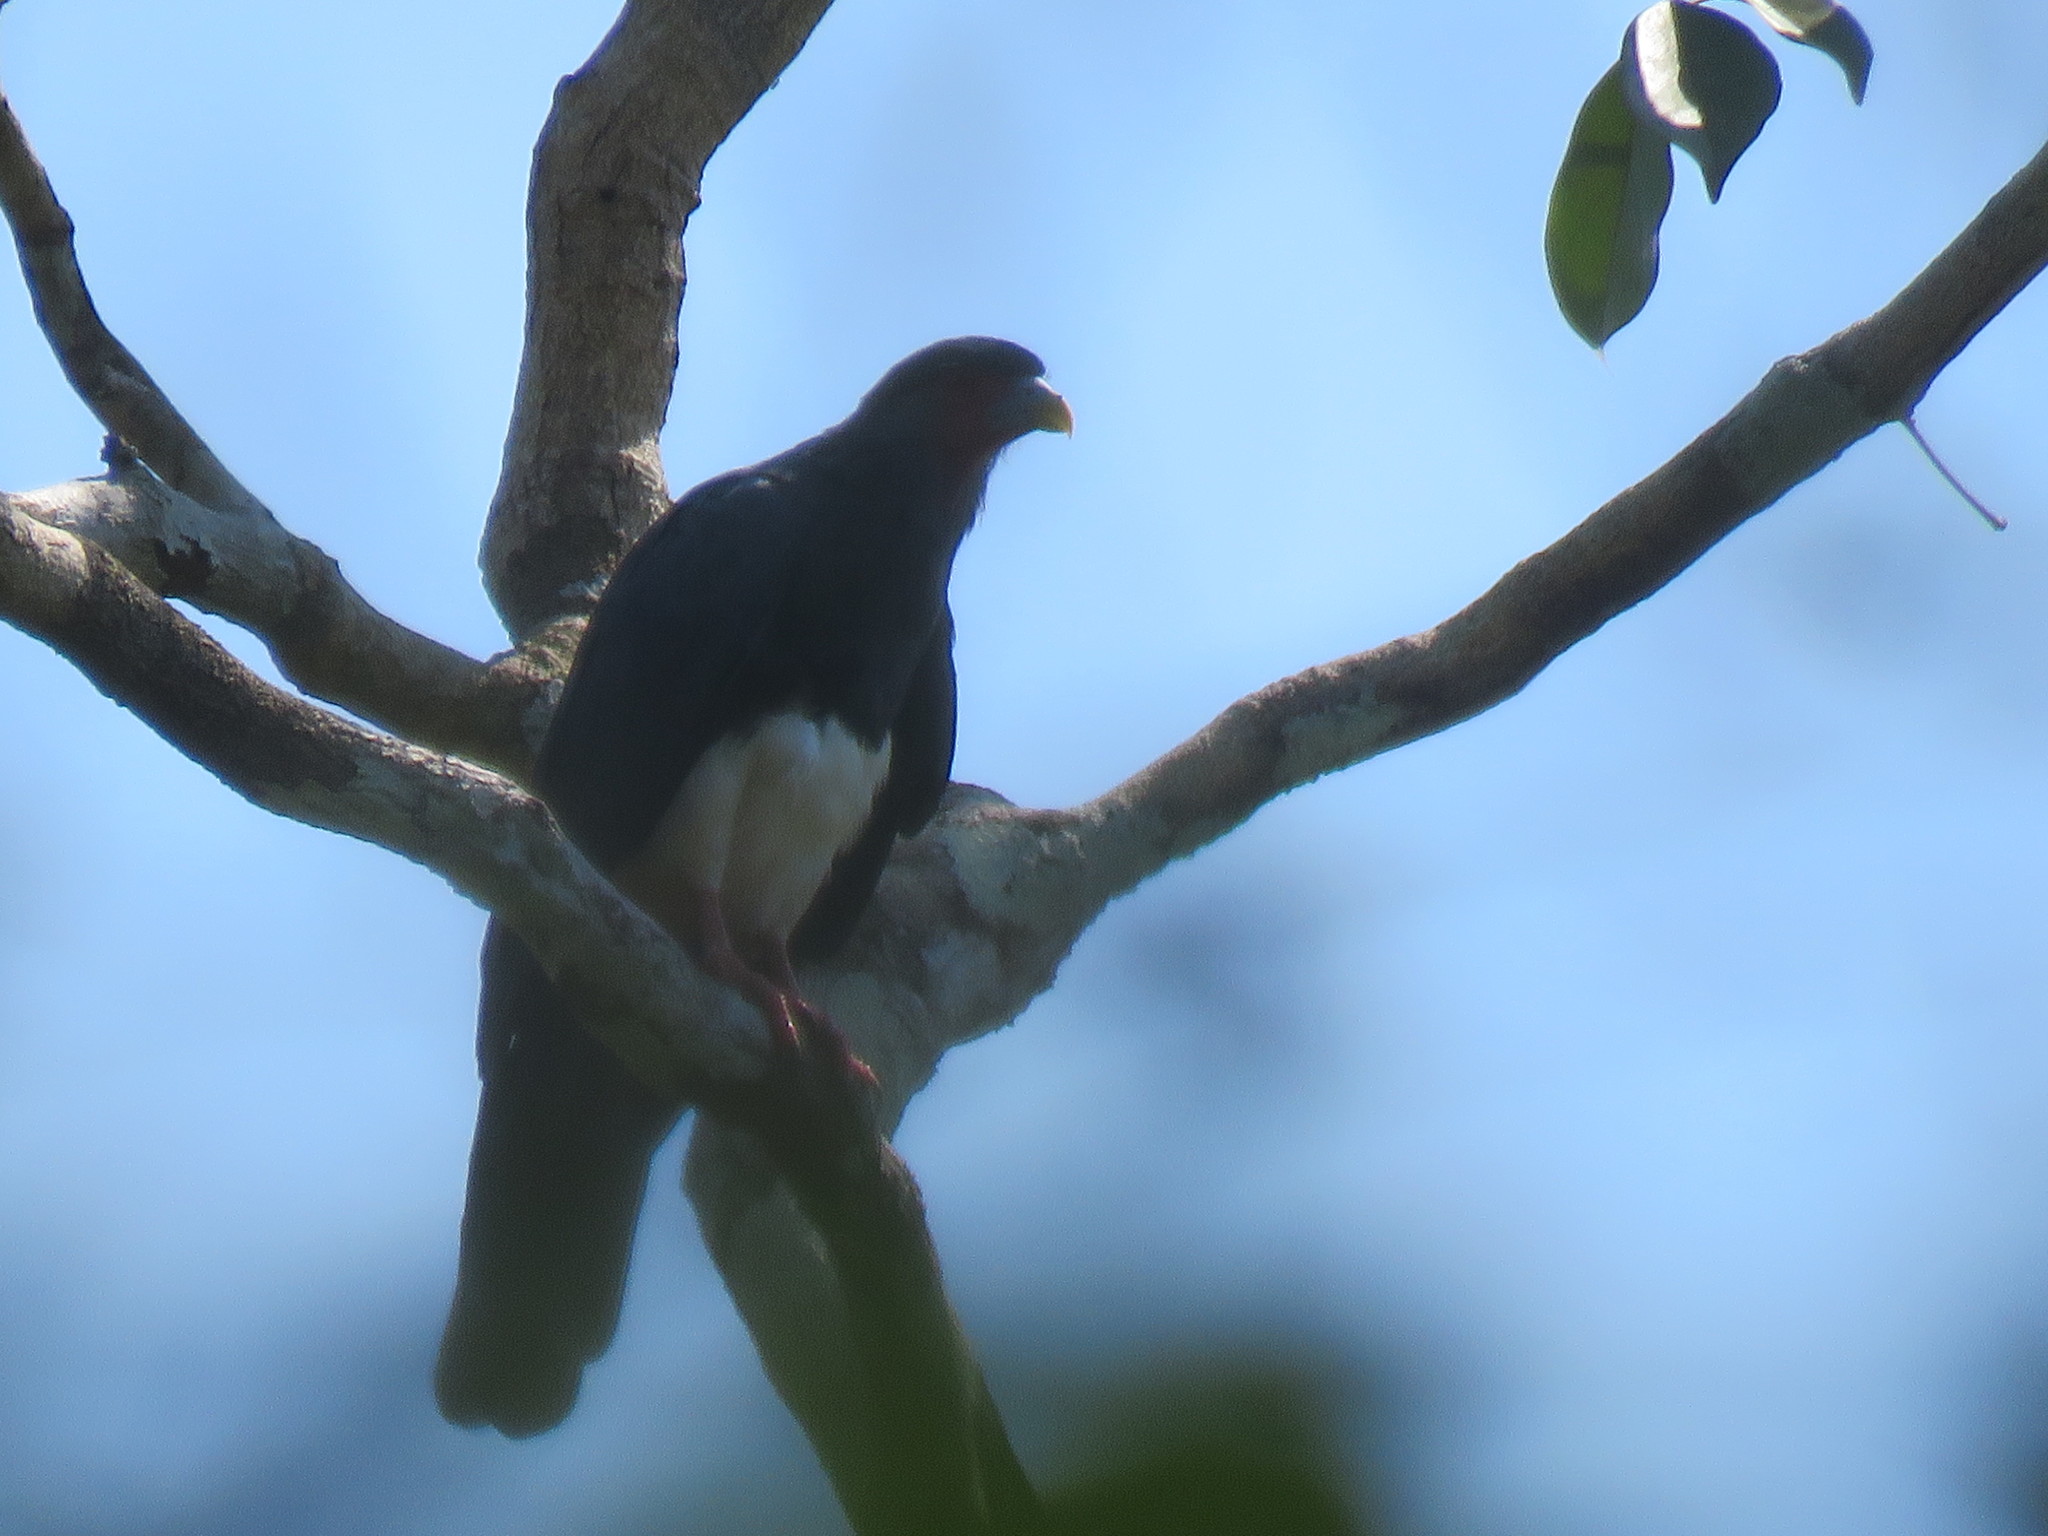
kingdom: Animalia
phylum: Chordata
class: Aves
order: Falconiformes
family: Falconidae
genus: Ibycter
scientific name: Ibycter americanus
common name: Red-throated caracara
